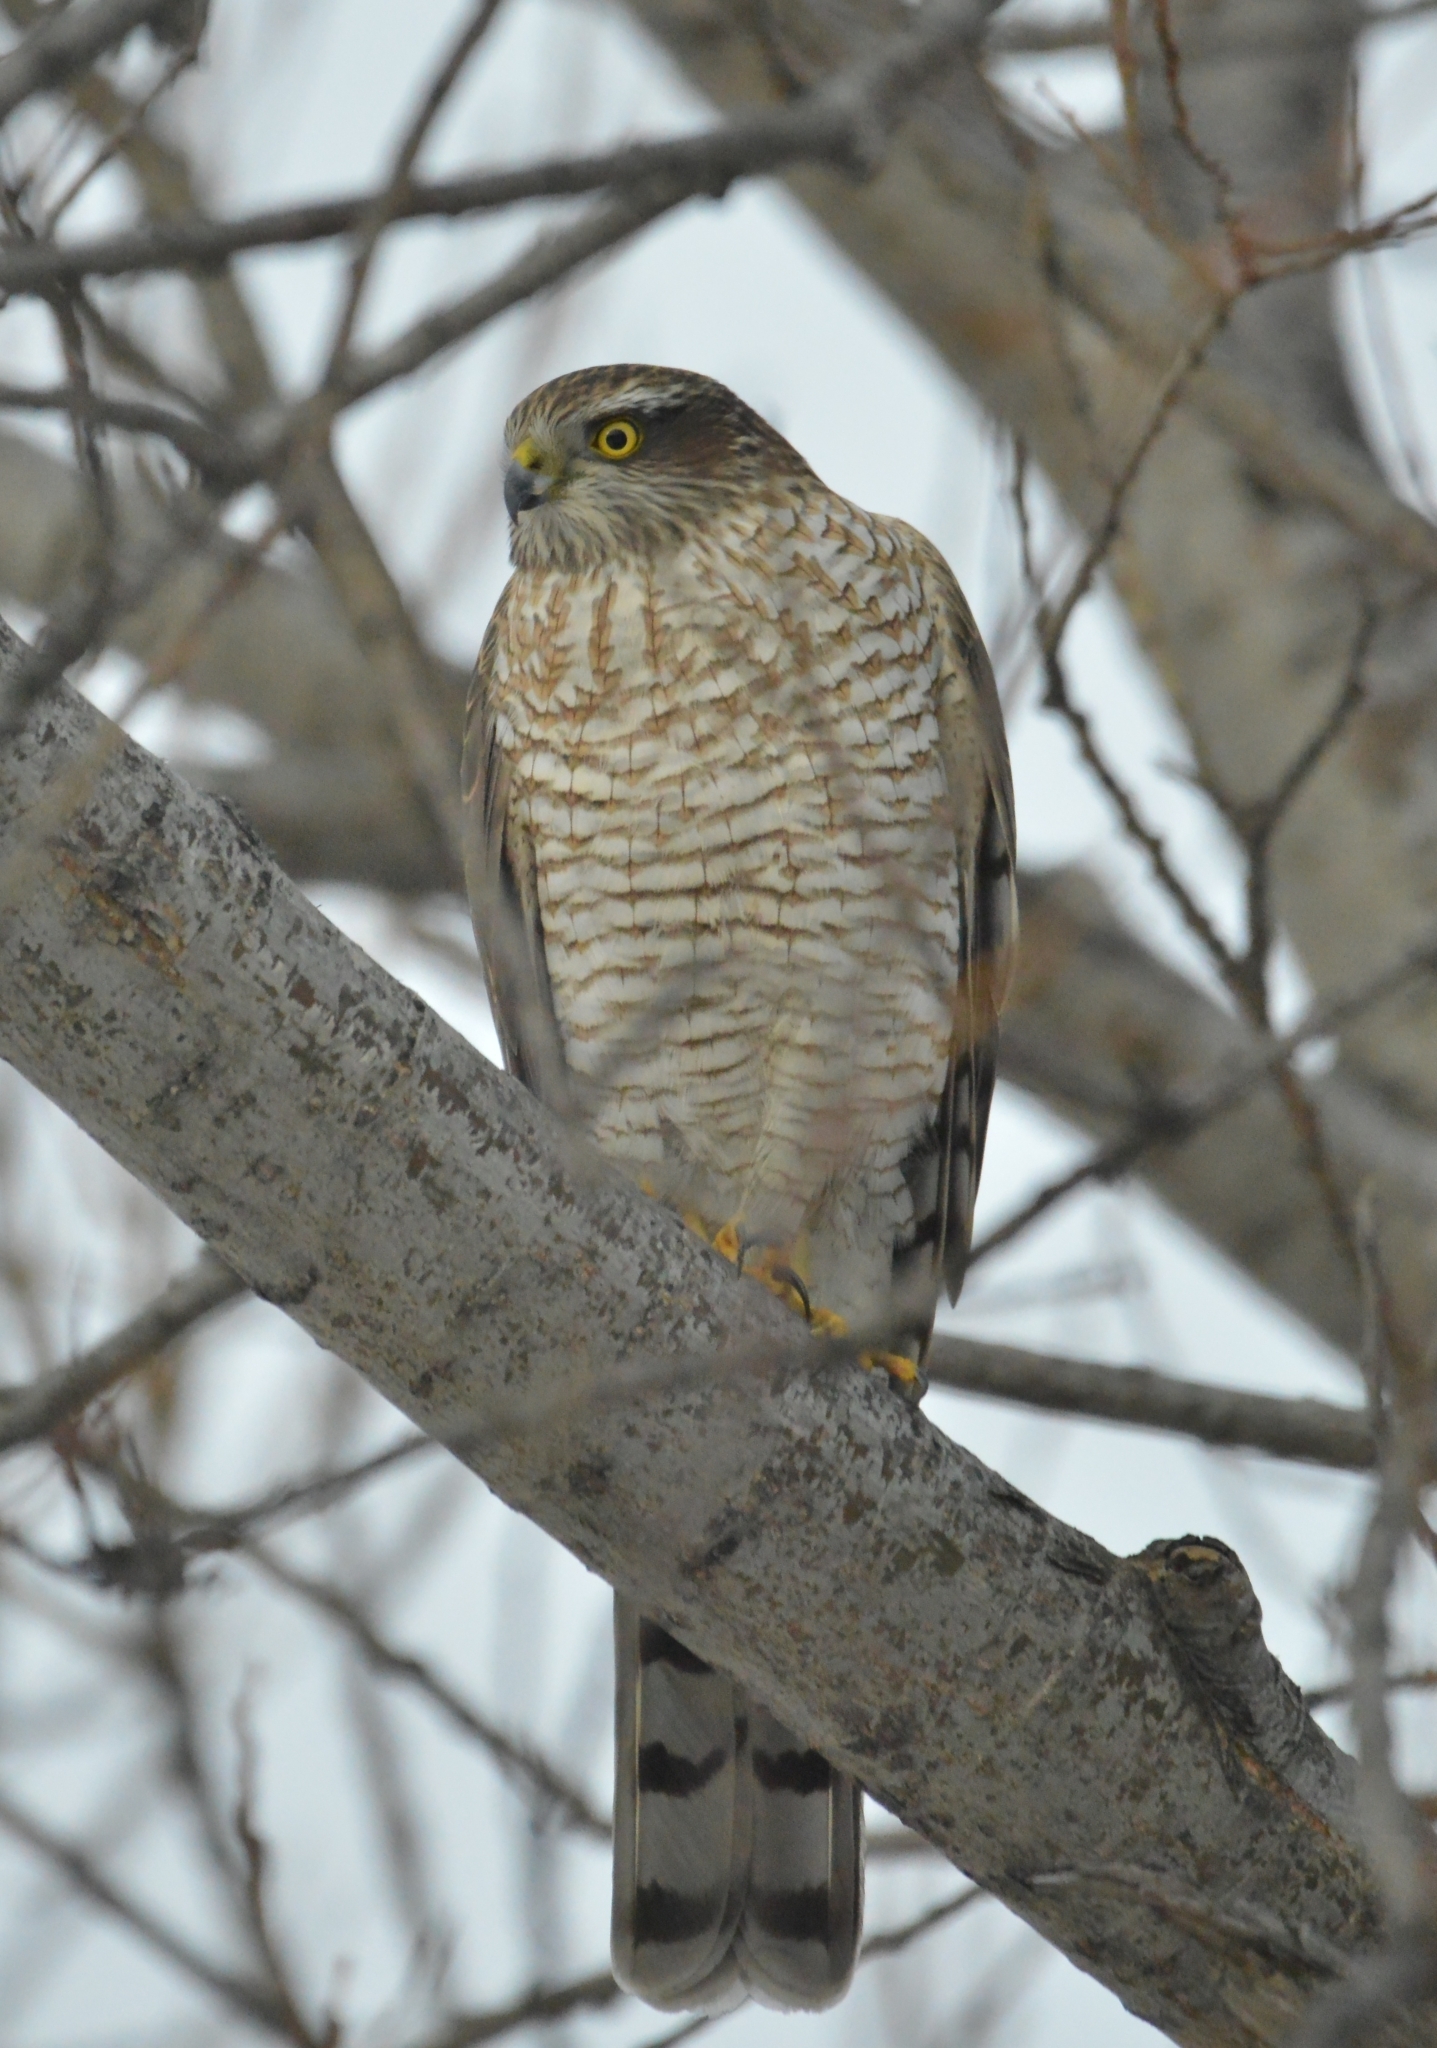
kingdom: Animalia
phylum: Chordata
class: Aves
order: Accipitriformes
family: Accipitridae
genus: Accipiter
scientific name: Accipiter nisus
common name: Eurasian sparrowhawk
